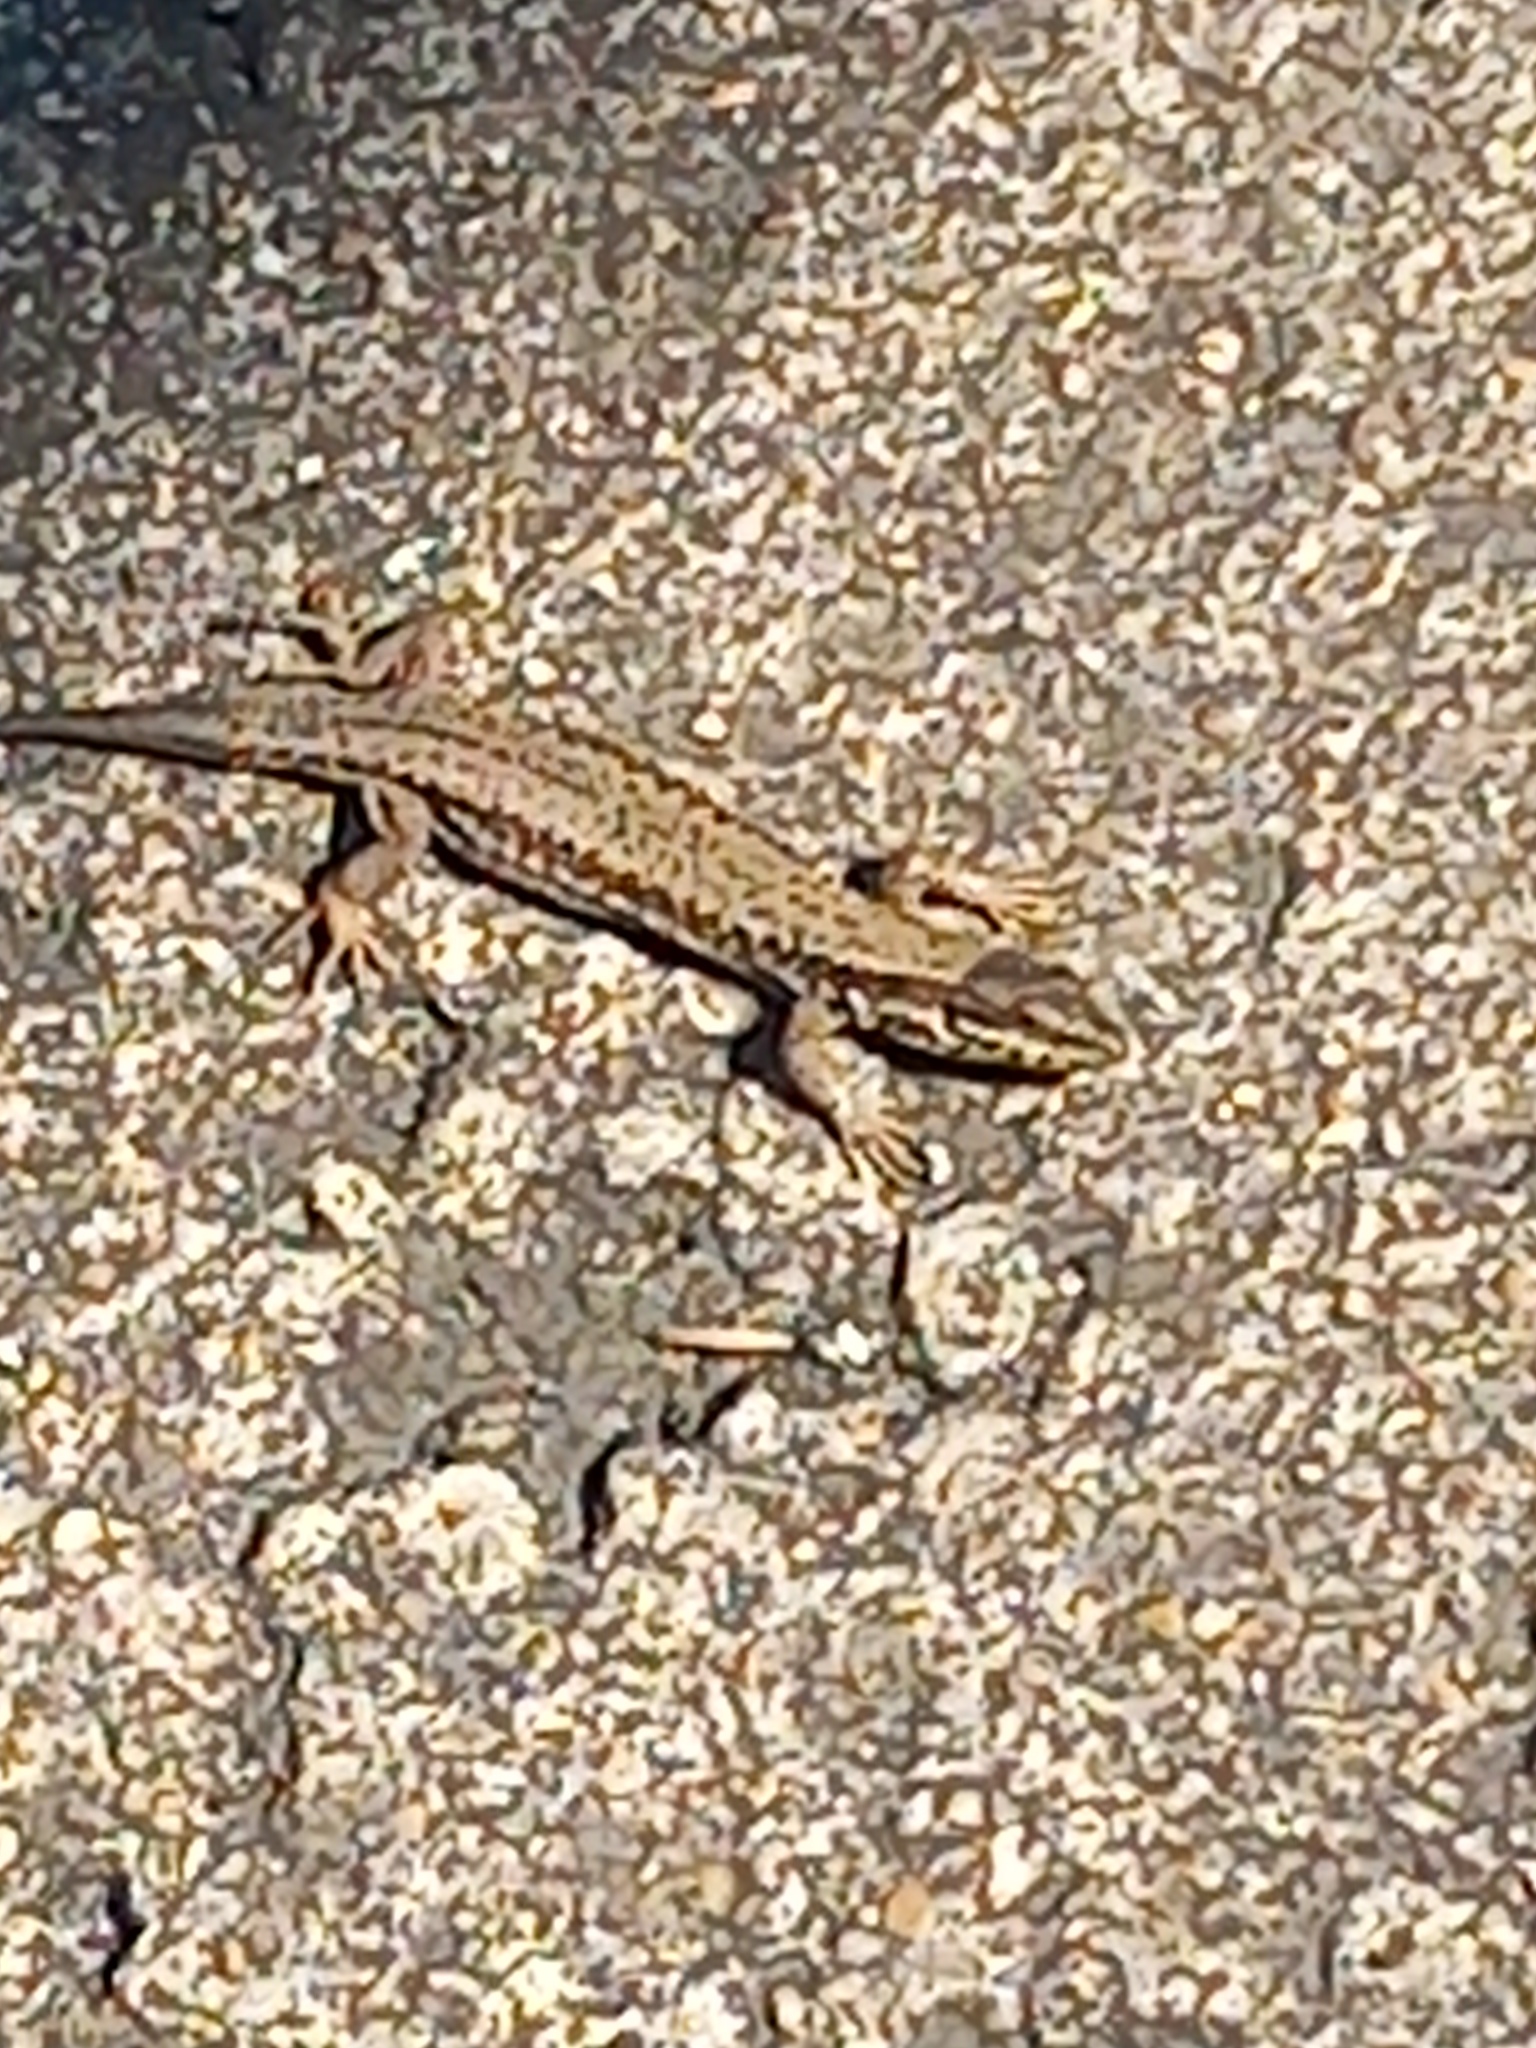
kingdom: Animalia
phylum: Chordata
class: Squamata
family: Lacertidae
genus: Podarcis
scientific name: Podarcis muralis
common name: Common wall lizard
